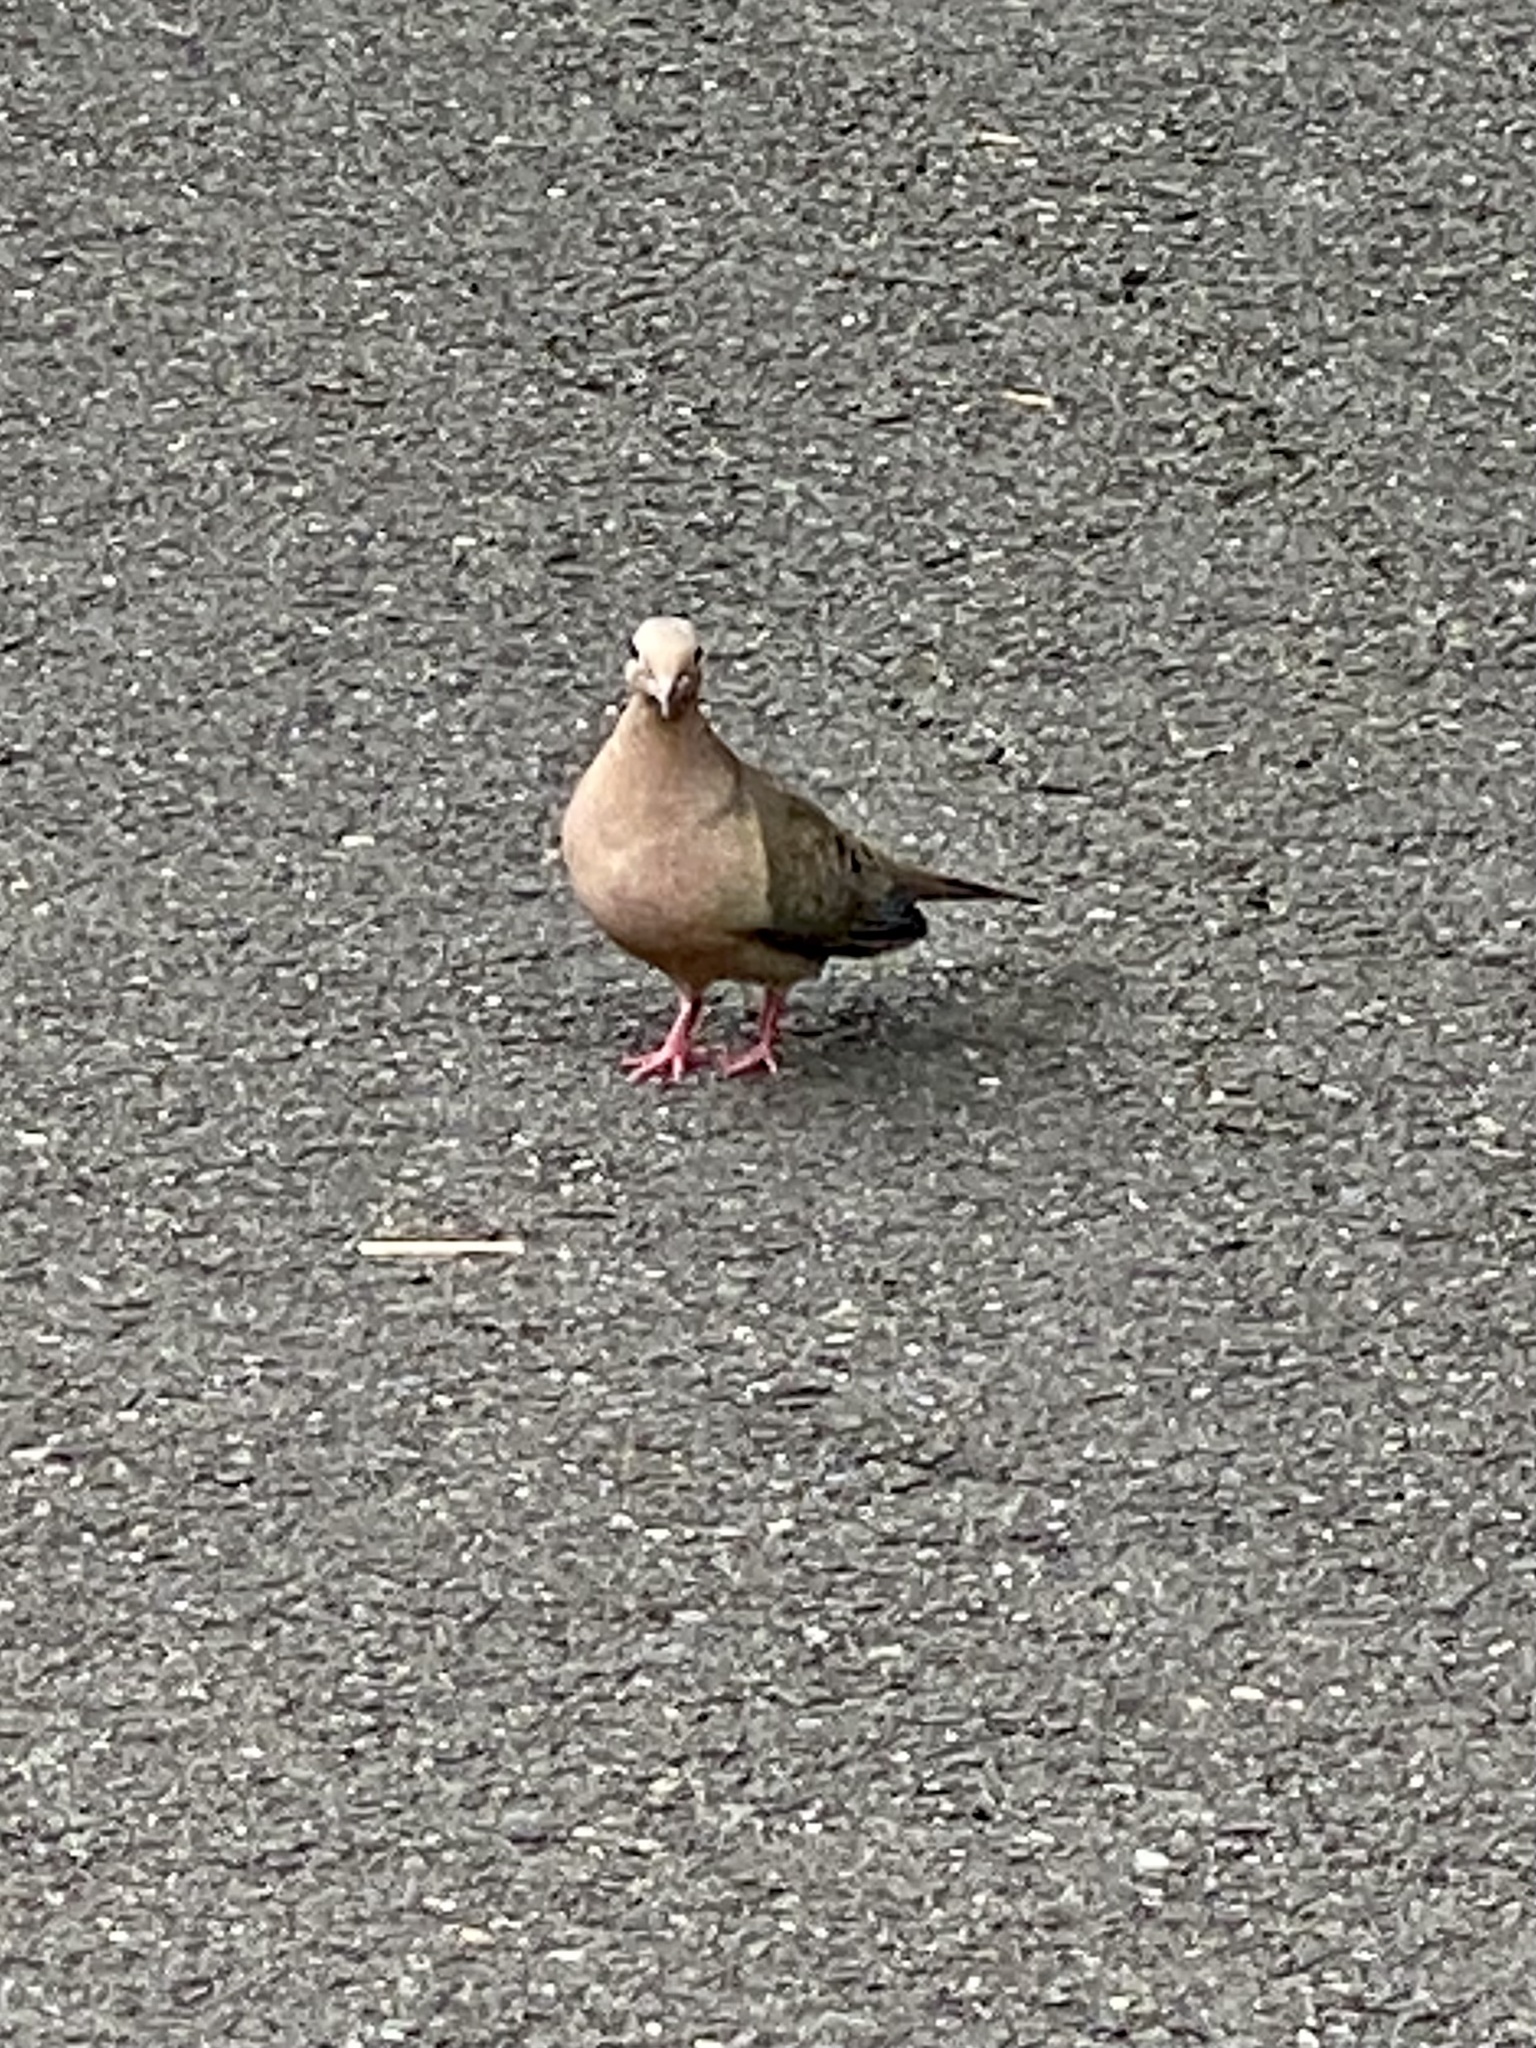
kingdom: Animalia
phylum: Chordata
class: Aves
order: Columbiformes
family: Columbidae
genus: Zenaida
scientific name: Zenaida macroura
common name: Mourning dove
